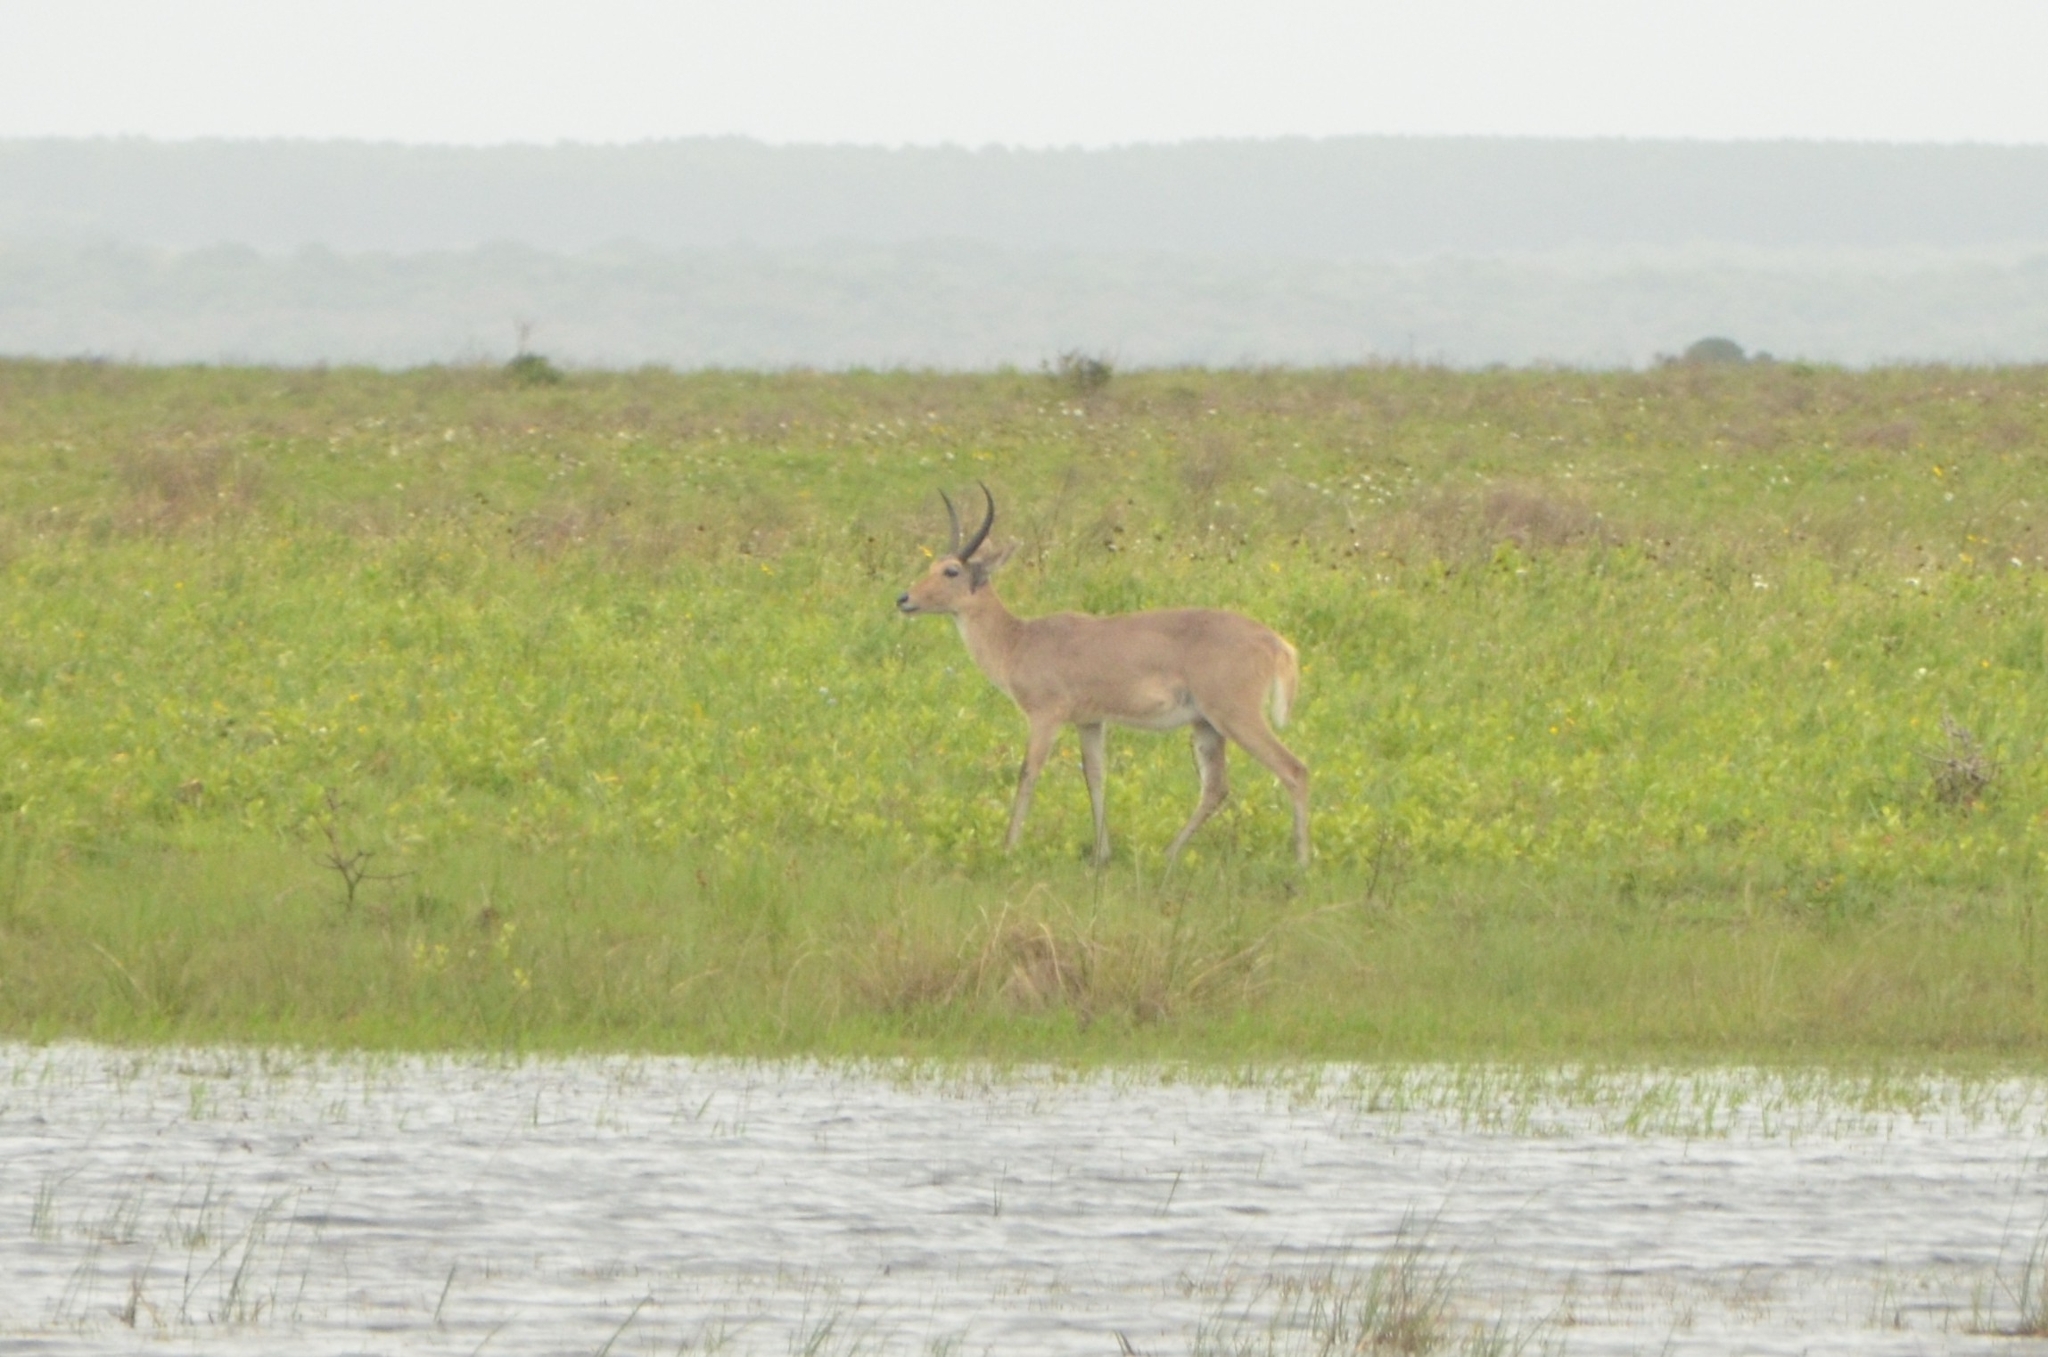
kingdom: Animalia
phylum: Chordata
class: Mammalia
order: Artiodactyla
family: Bovidae
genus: Redunca
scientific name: Redunca arundinum
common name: Southern reedbuck
